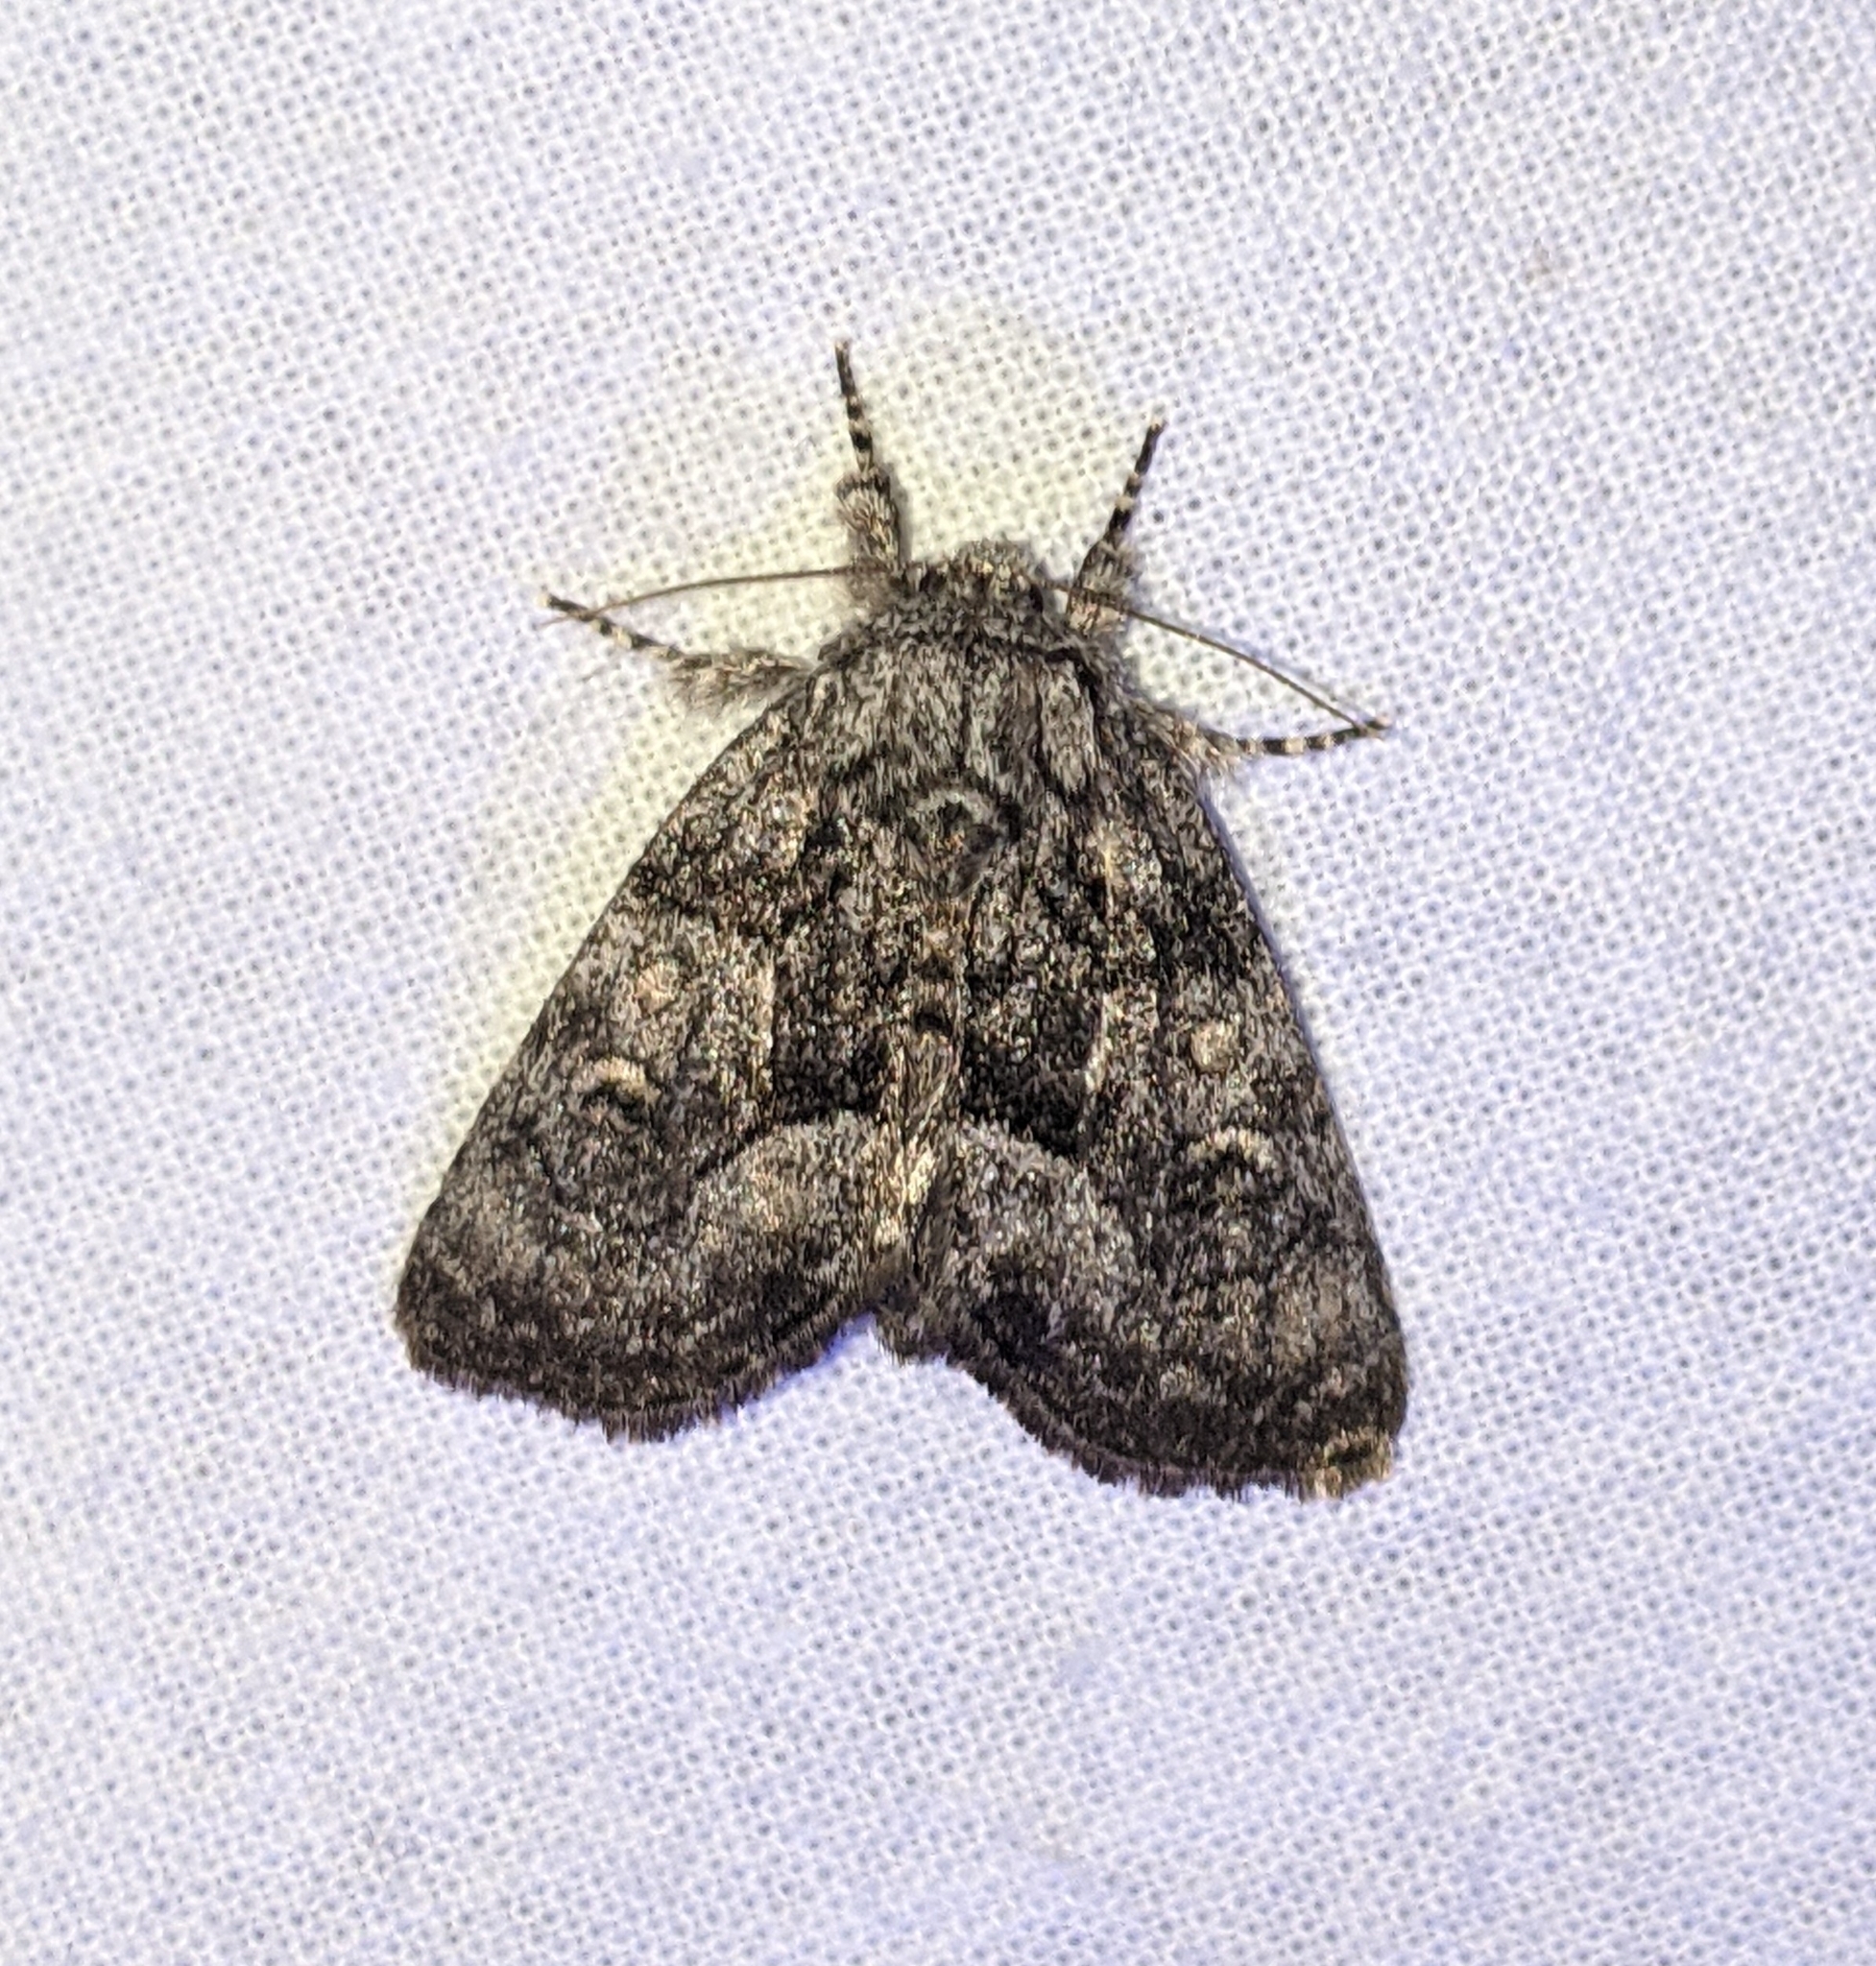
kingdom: Animalia
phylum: Arthropoda
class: Insecta
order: Lepidoptera
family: Noctuidae
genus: Raphia
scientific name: Raphia frater
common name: Brother
